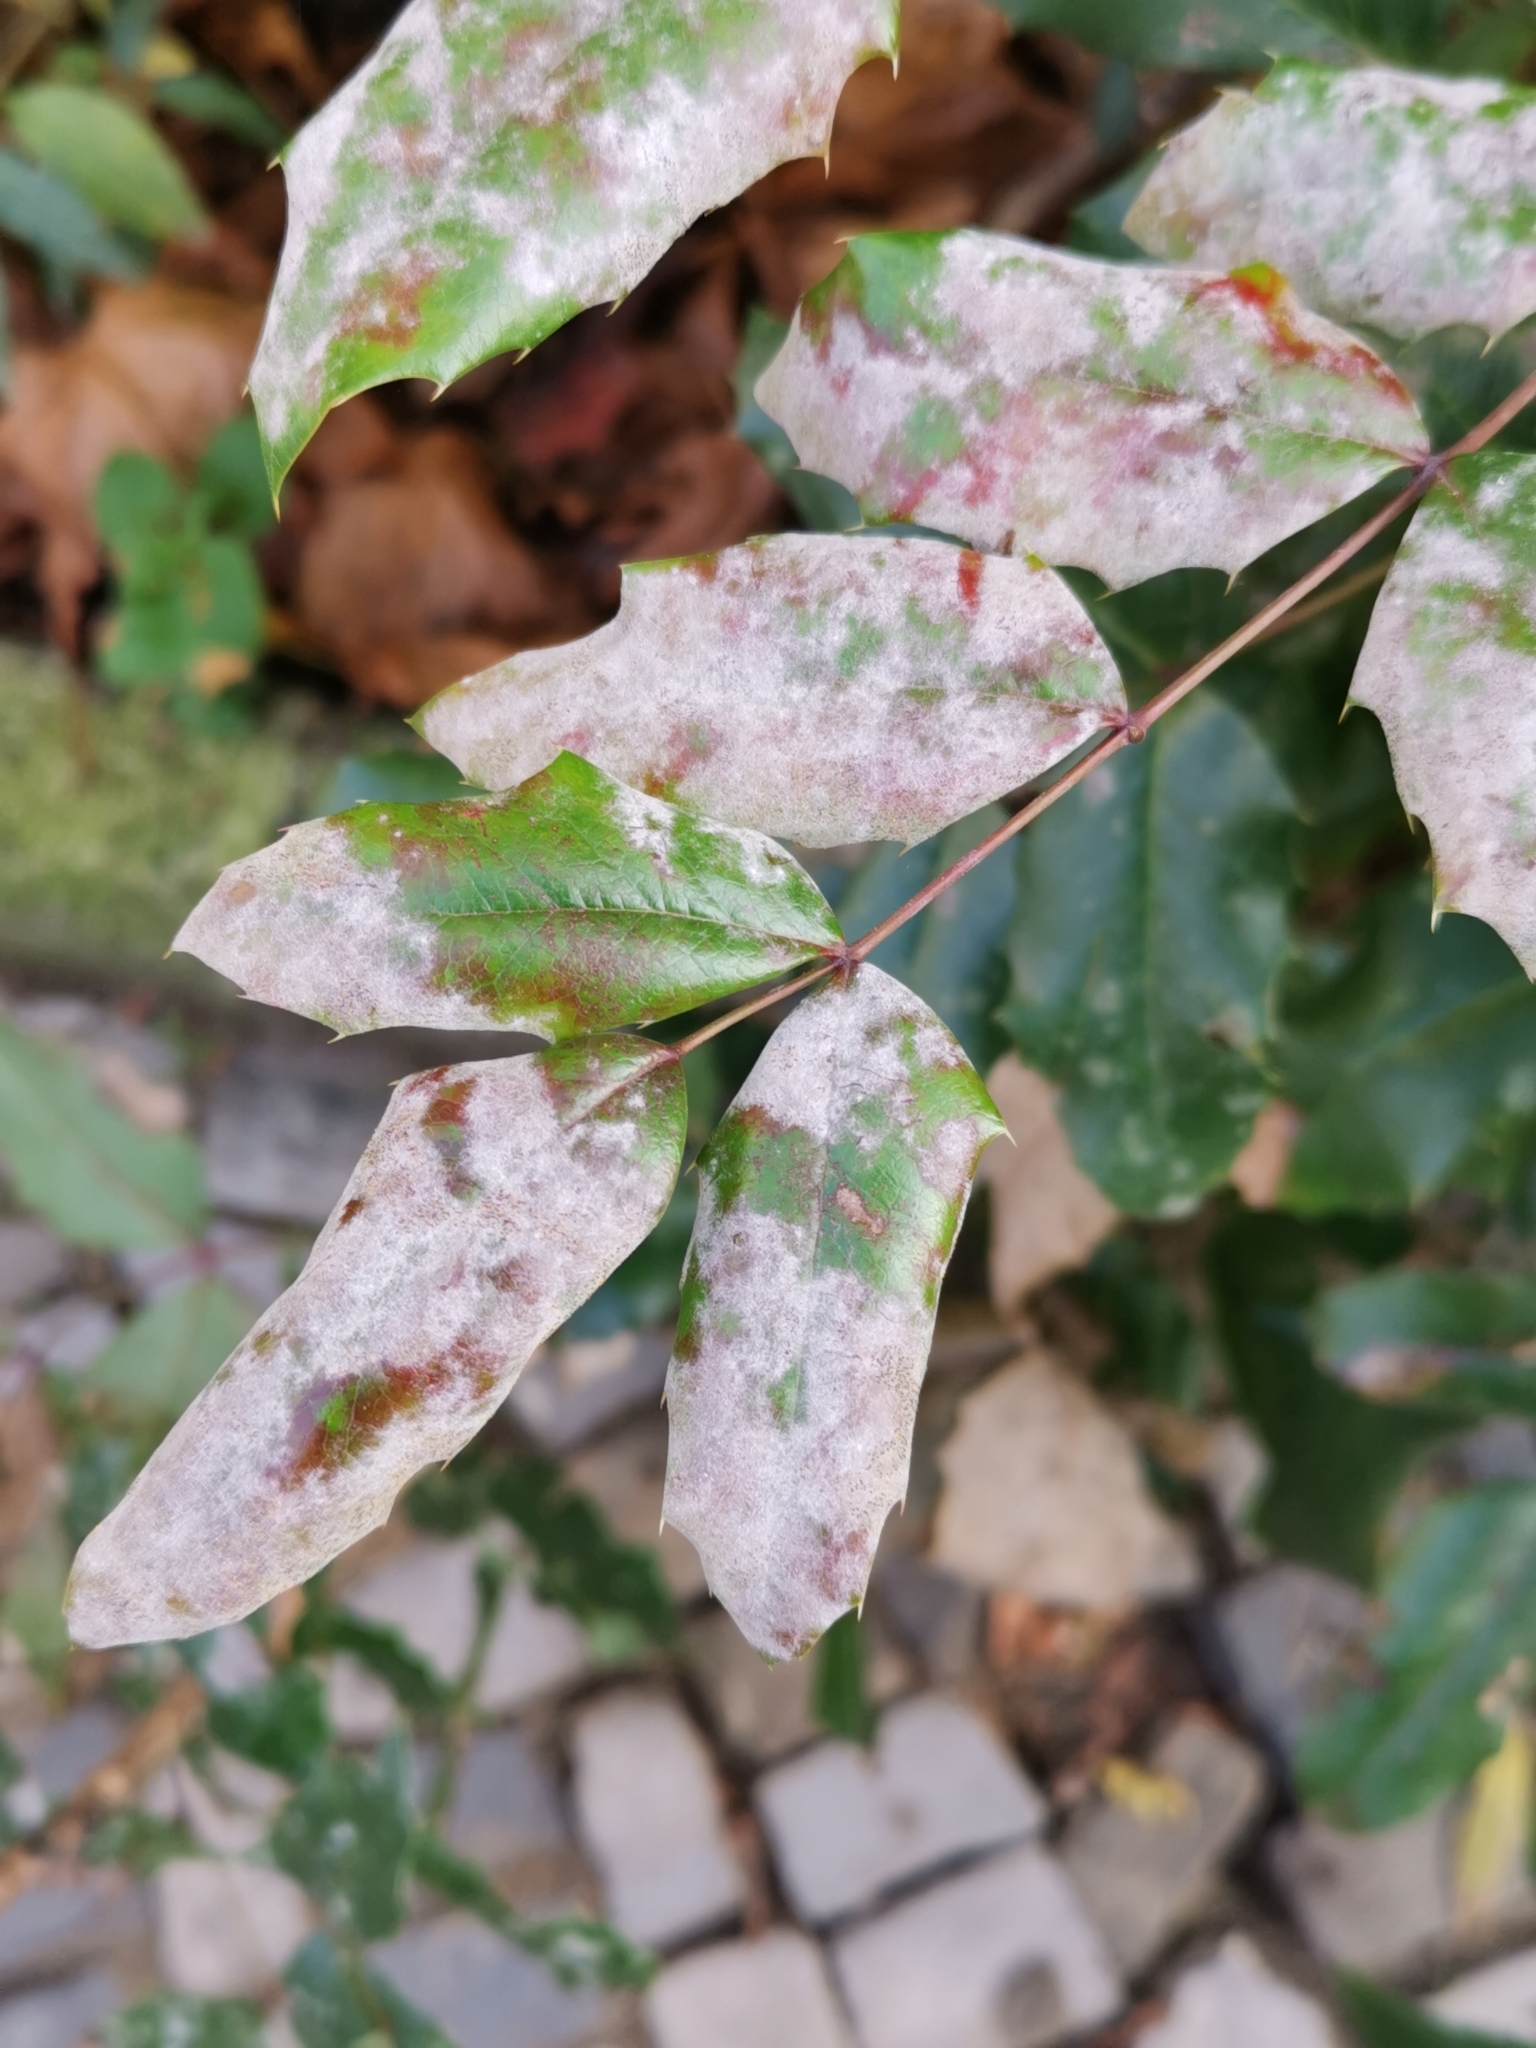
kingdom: Fungi
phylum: Ascomycota
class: Leotiomycetes
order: Helotiales
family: Erysiphaceae
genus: Erysiphe
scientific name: Erysiphe berberidis
